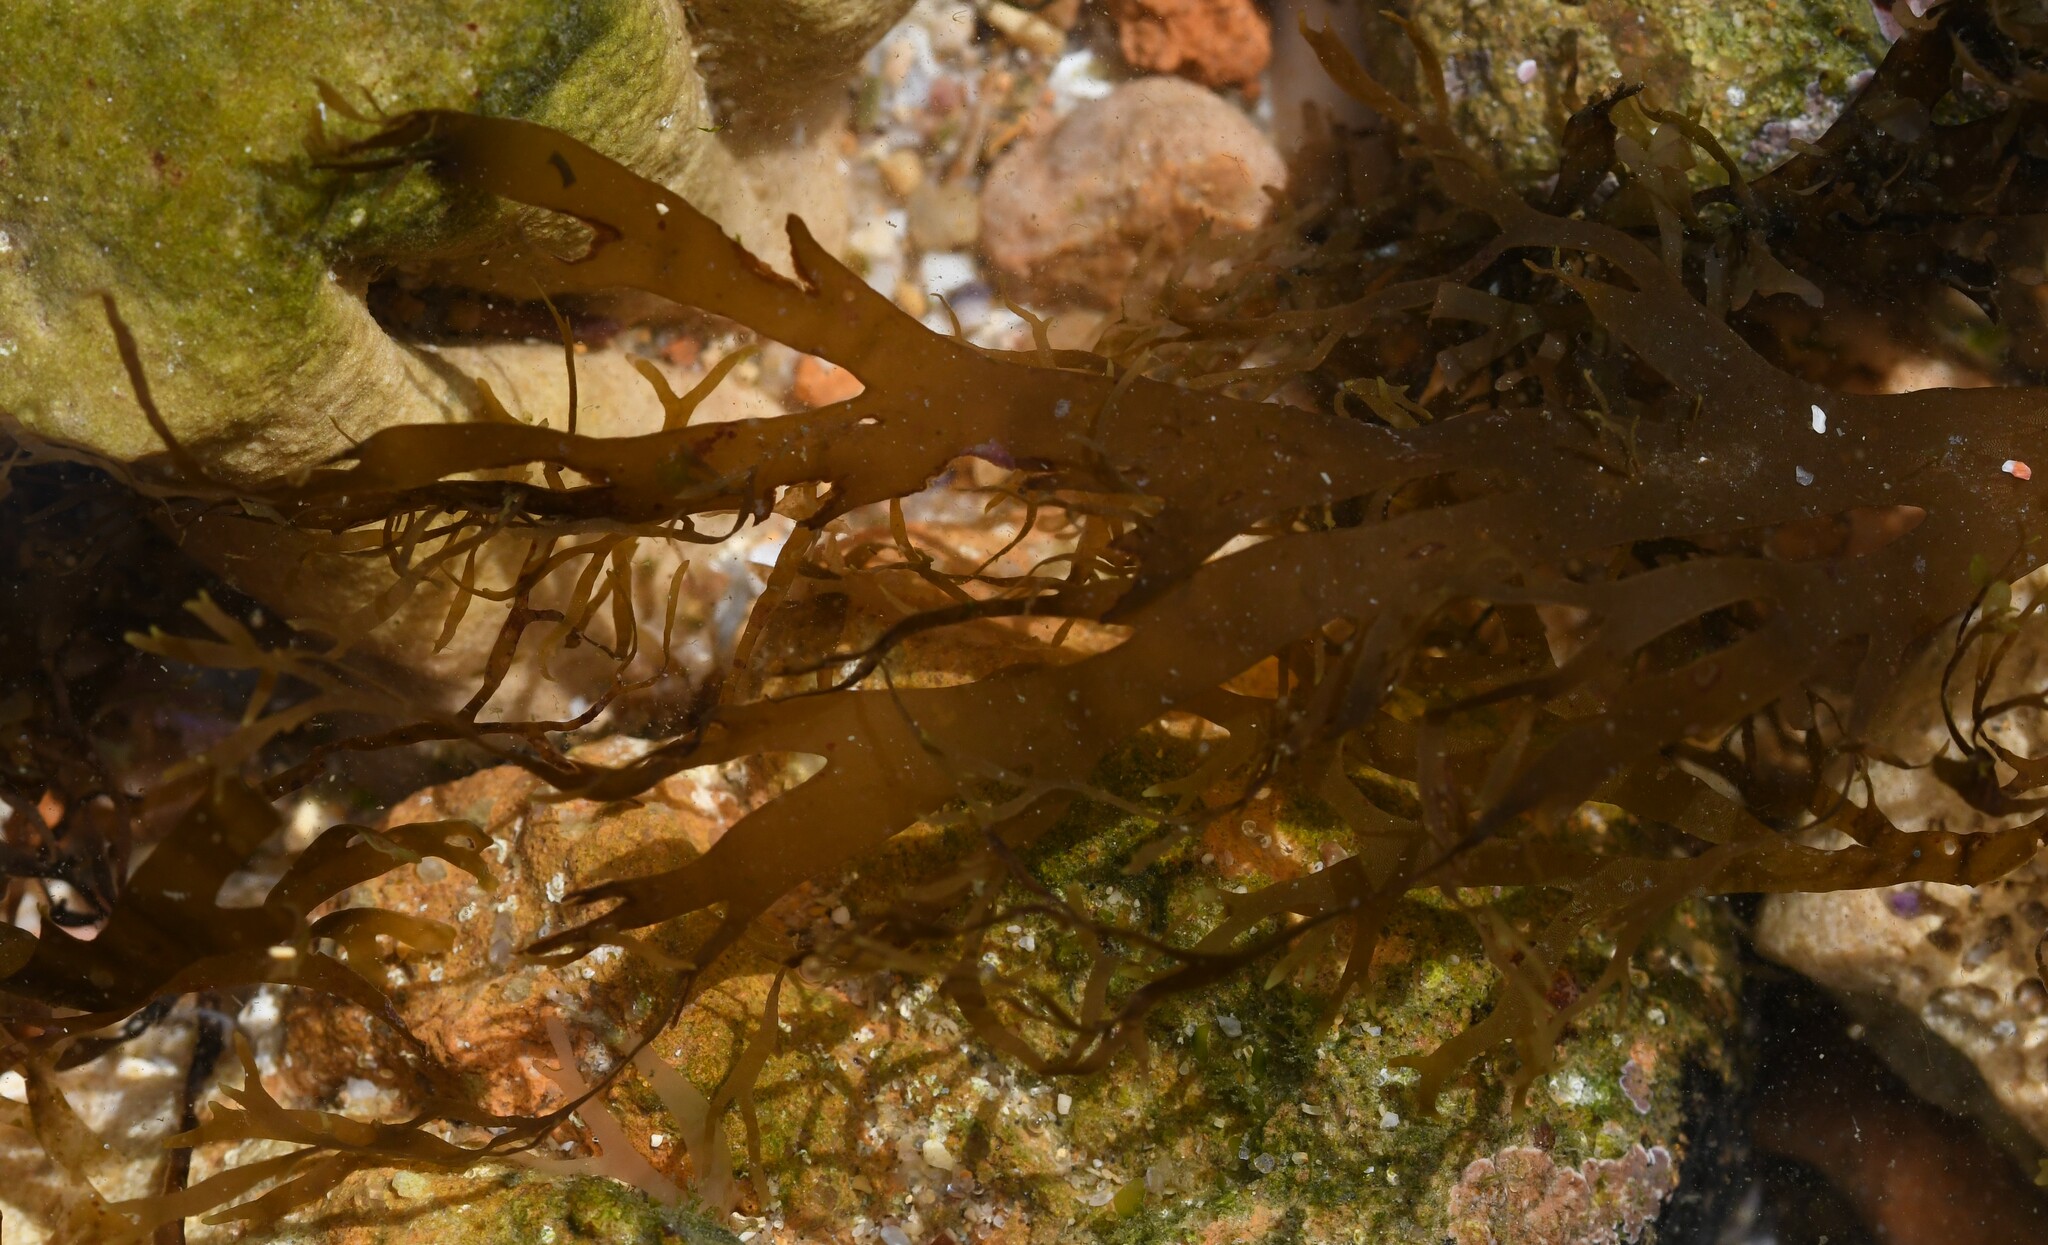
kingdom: Chromista
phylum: Ochrophyta
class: Phaeophyceae
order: Dictyotales
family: Dictyotaceae
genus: Rugulopteryx
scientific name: Rugulopteryx okamurae
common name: Algae stomp
